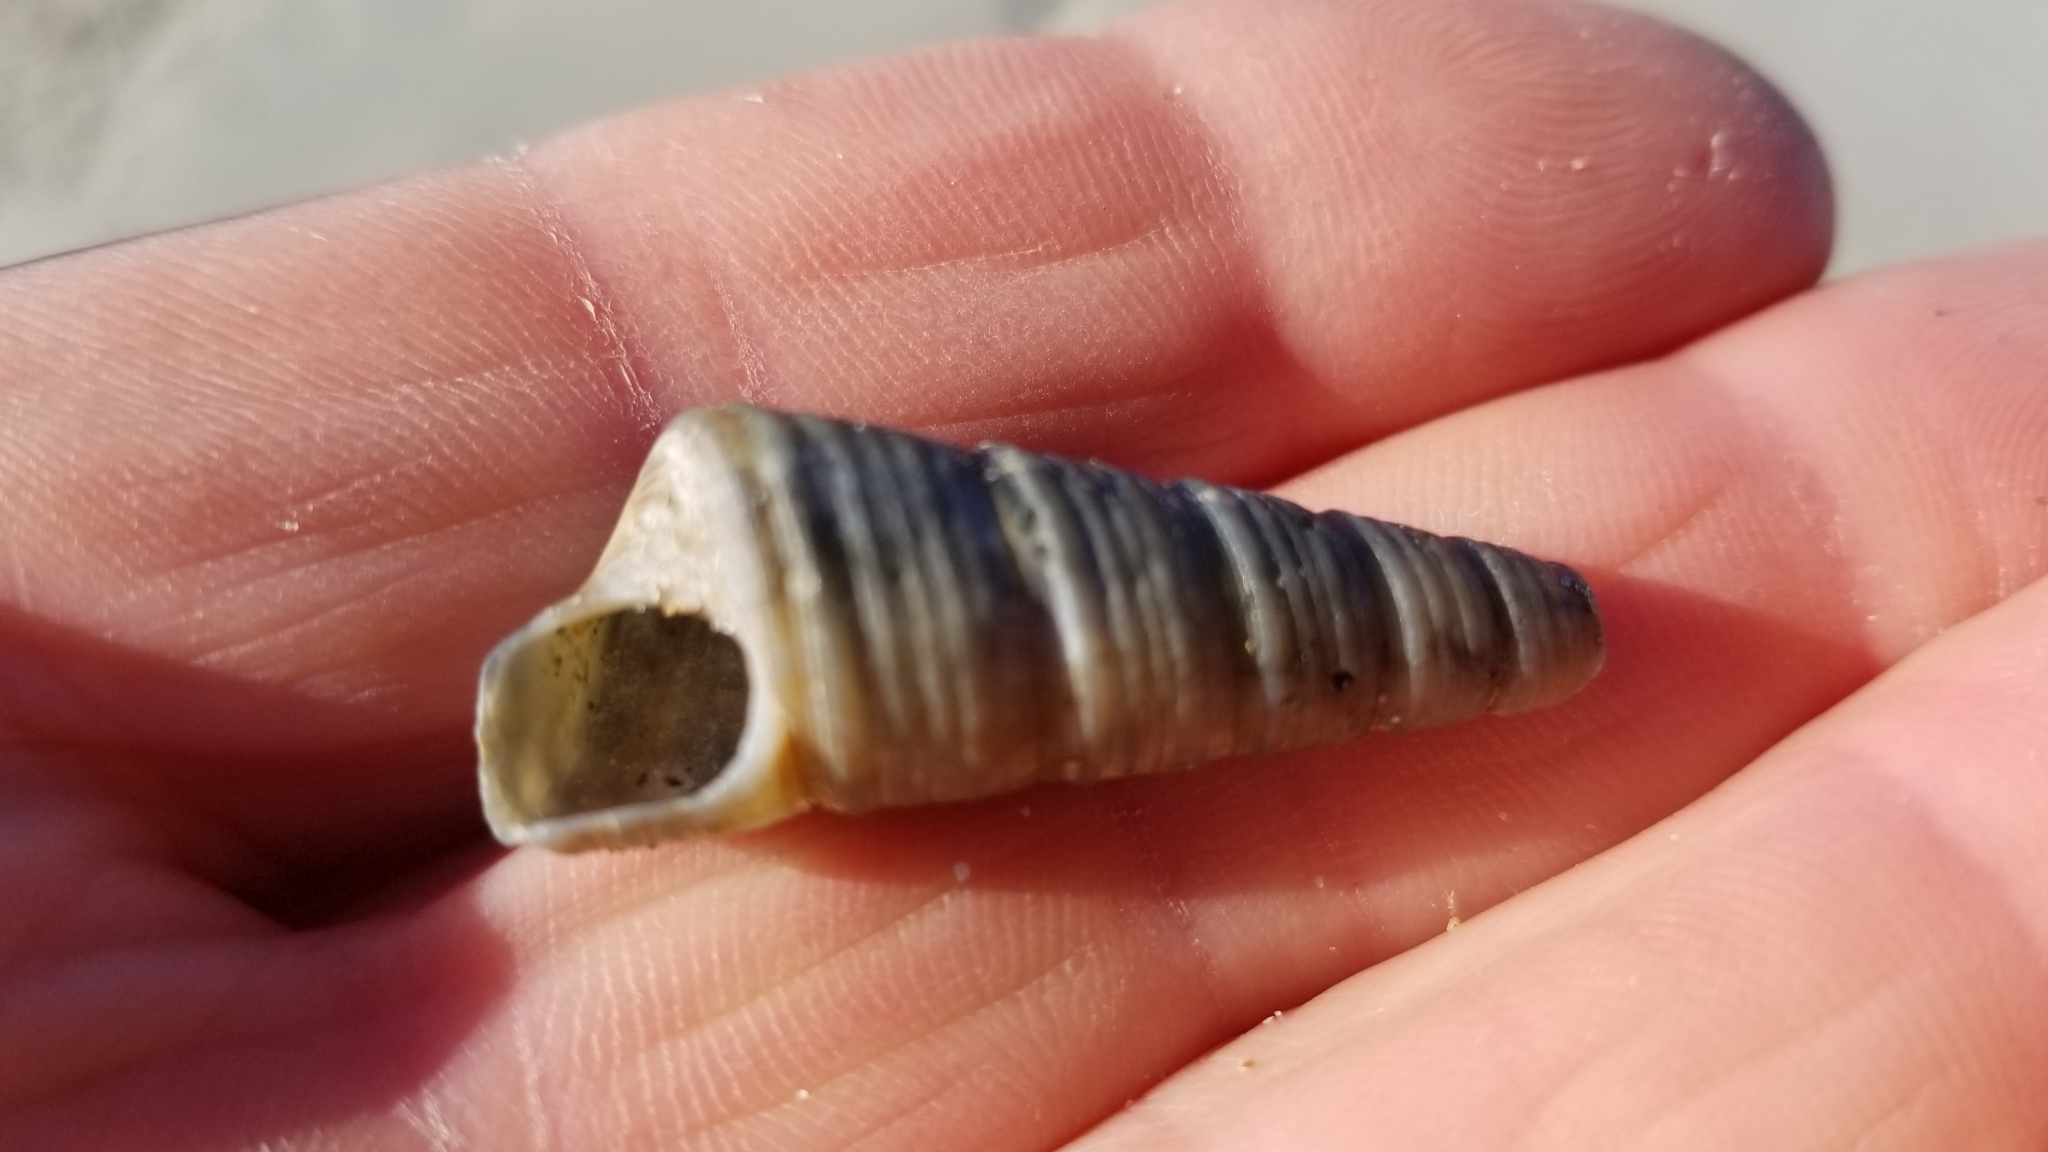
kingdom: Animalia
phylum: Mollusca
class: Gastropoda
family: Turritellidae
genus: Maoricolpus
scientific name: Maoricolpus roseus
